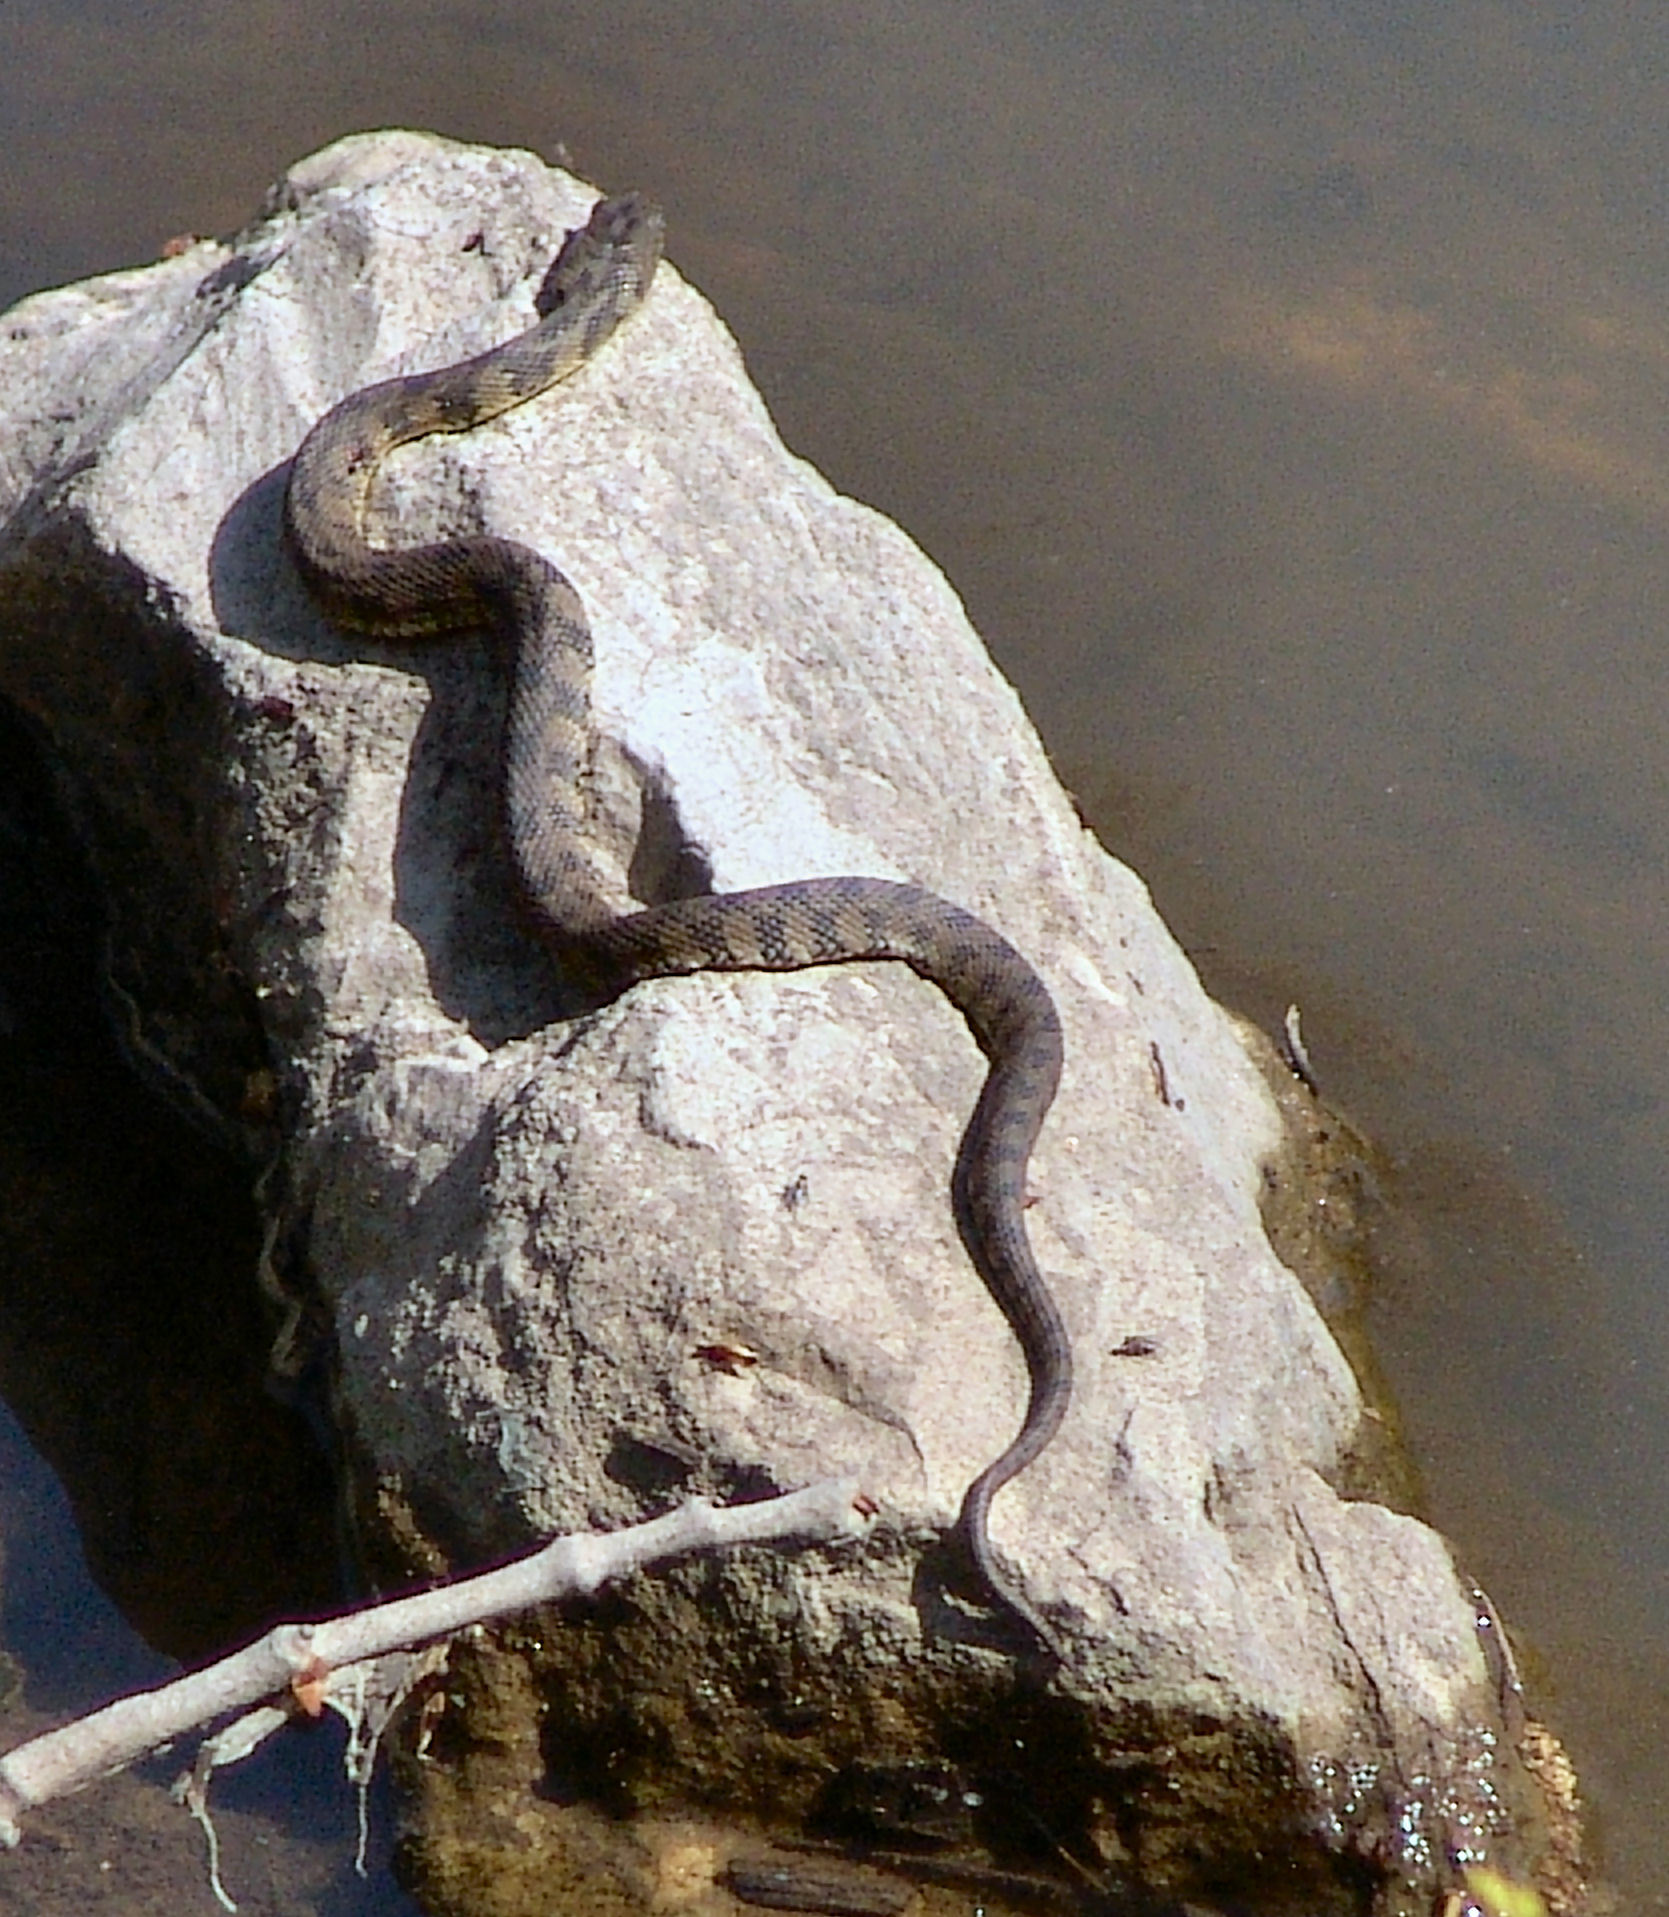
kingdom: Animalia
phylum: Chordata
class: Squamata
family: Colubridae
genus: Nerodia
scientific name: Nerodia rhombifer
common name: Diamondback water snake
